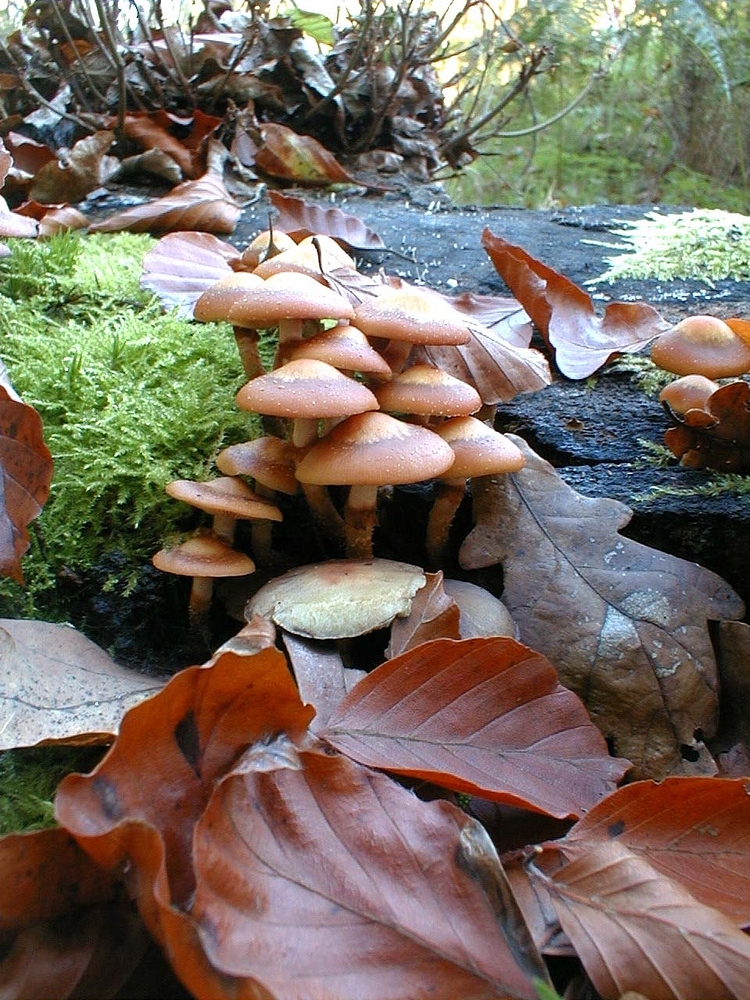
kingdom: Fungi
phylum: Basidiomycota
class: Agaricomycetes
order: Agaricales
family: Strophariaceae
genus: Kuehneromyces
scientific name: Kuehneromyces mutabilis
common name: Sheathed woodtuft
